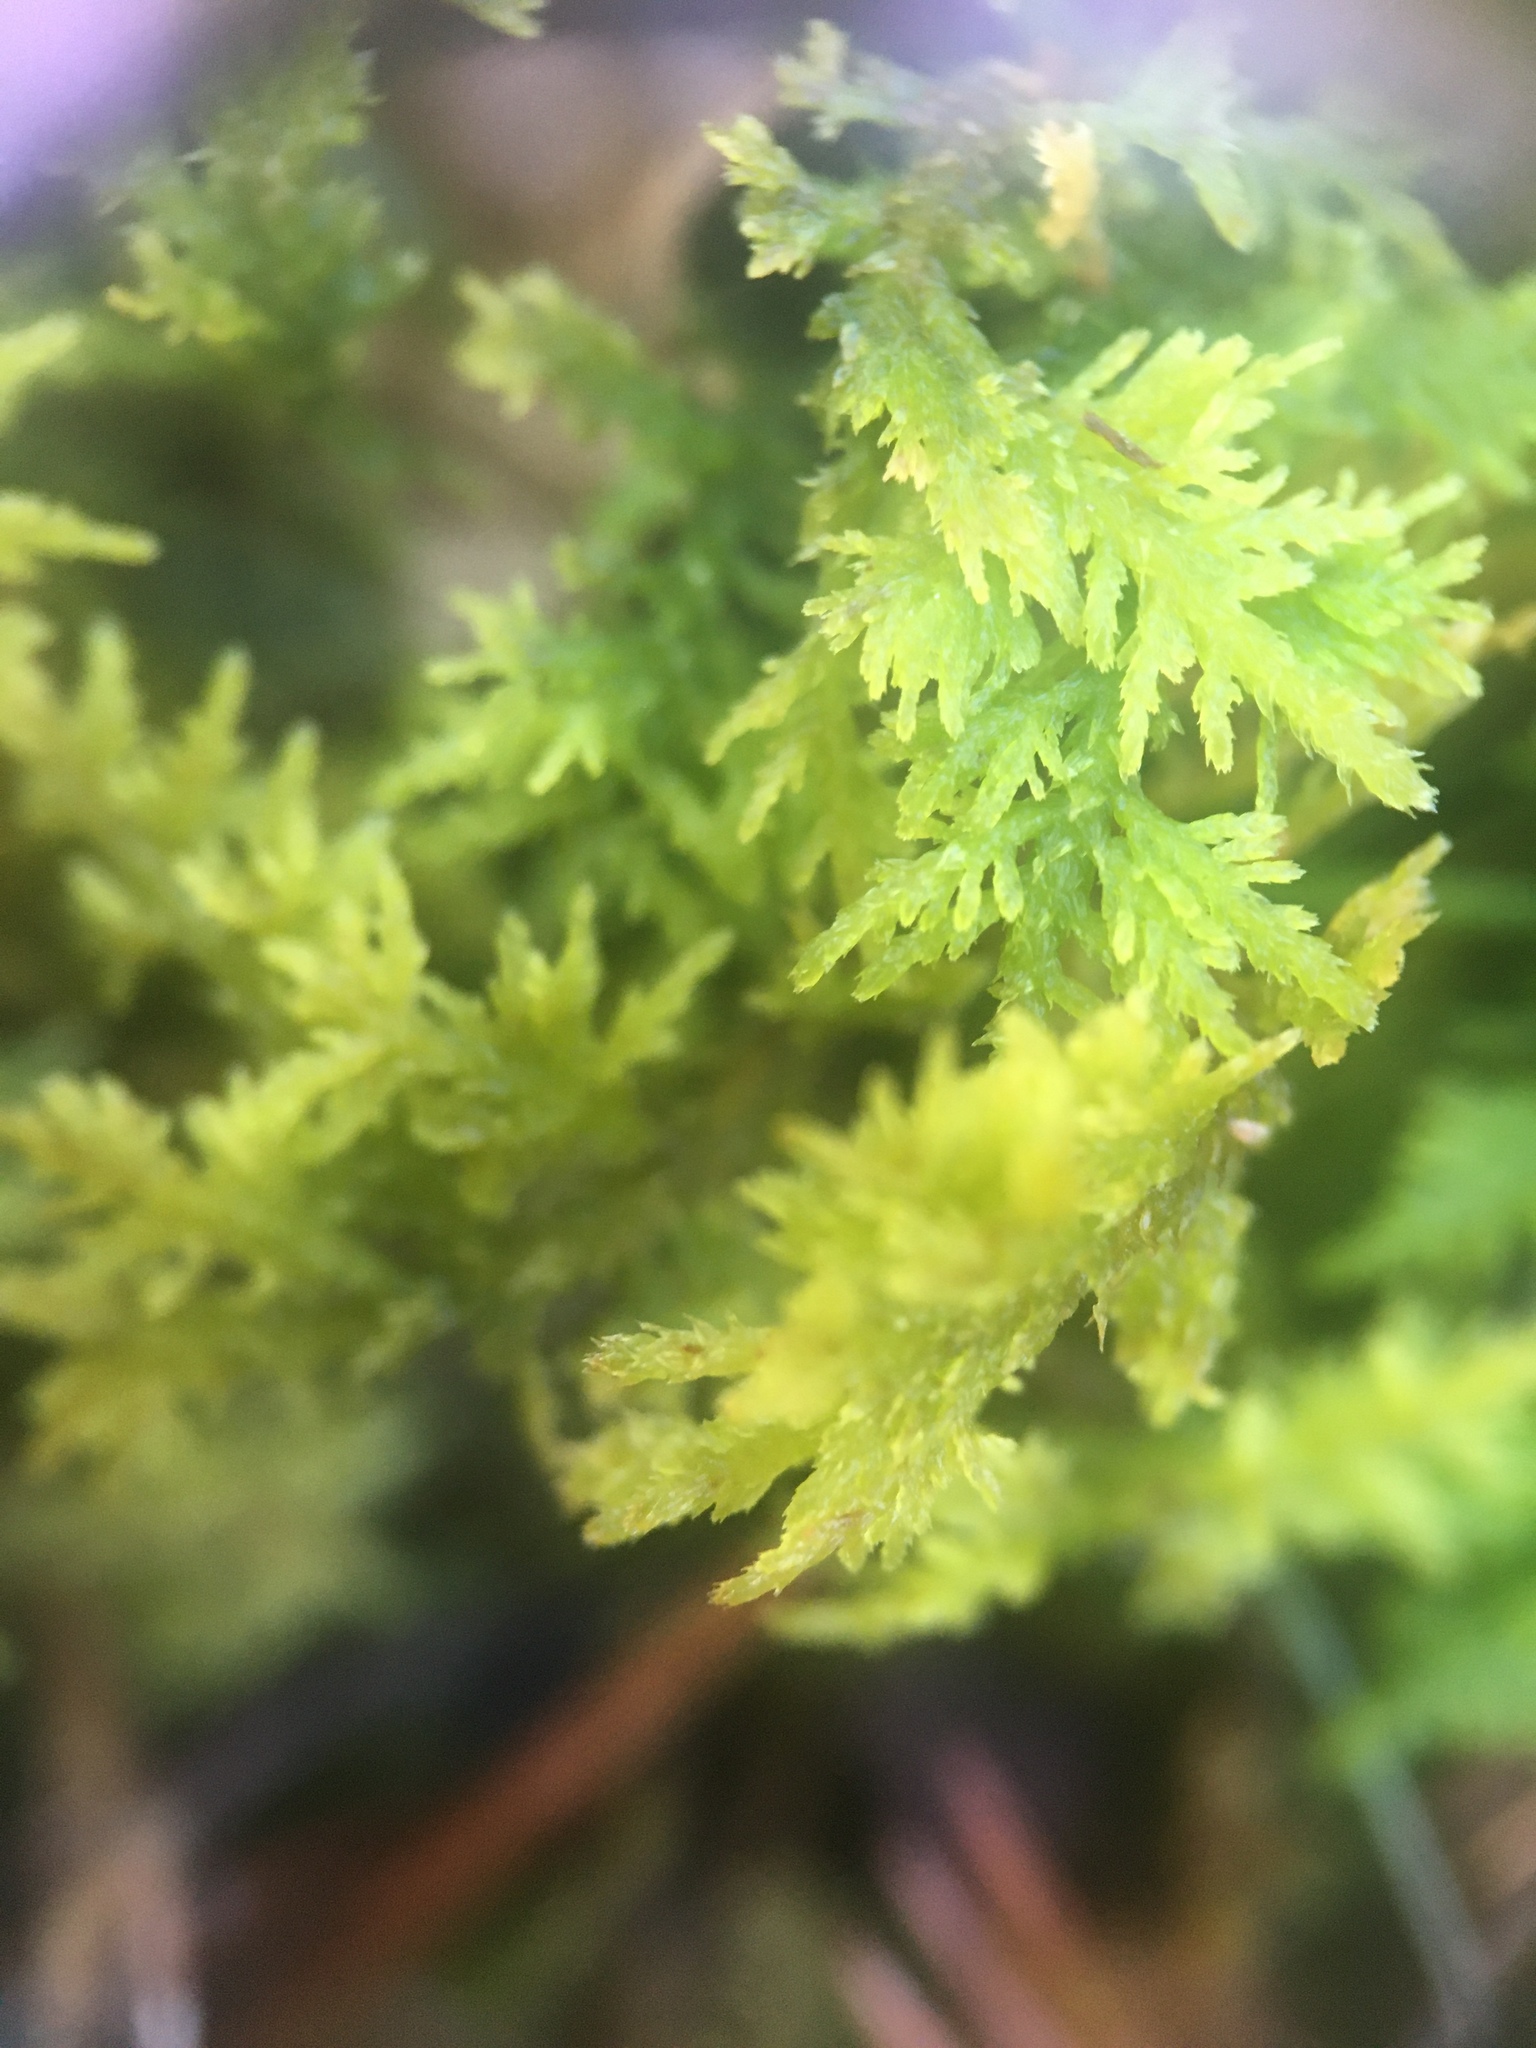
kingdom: Plantae
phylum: Bryophyta
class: Bryopsida
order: Hypnales
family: Thuidiaceae
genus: Thuidium
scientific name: Thuidium delicatulum
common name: Delicate fern moss
